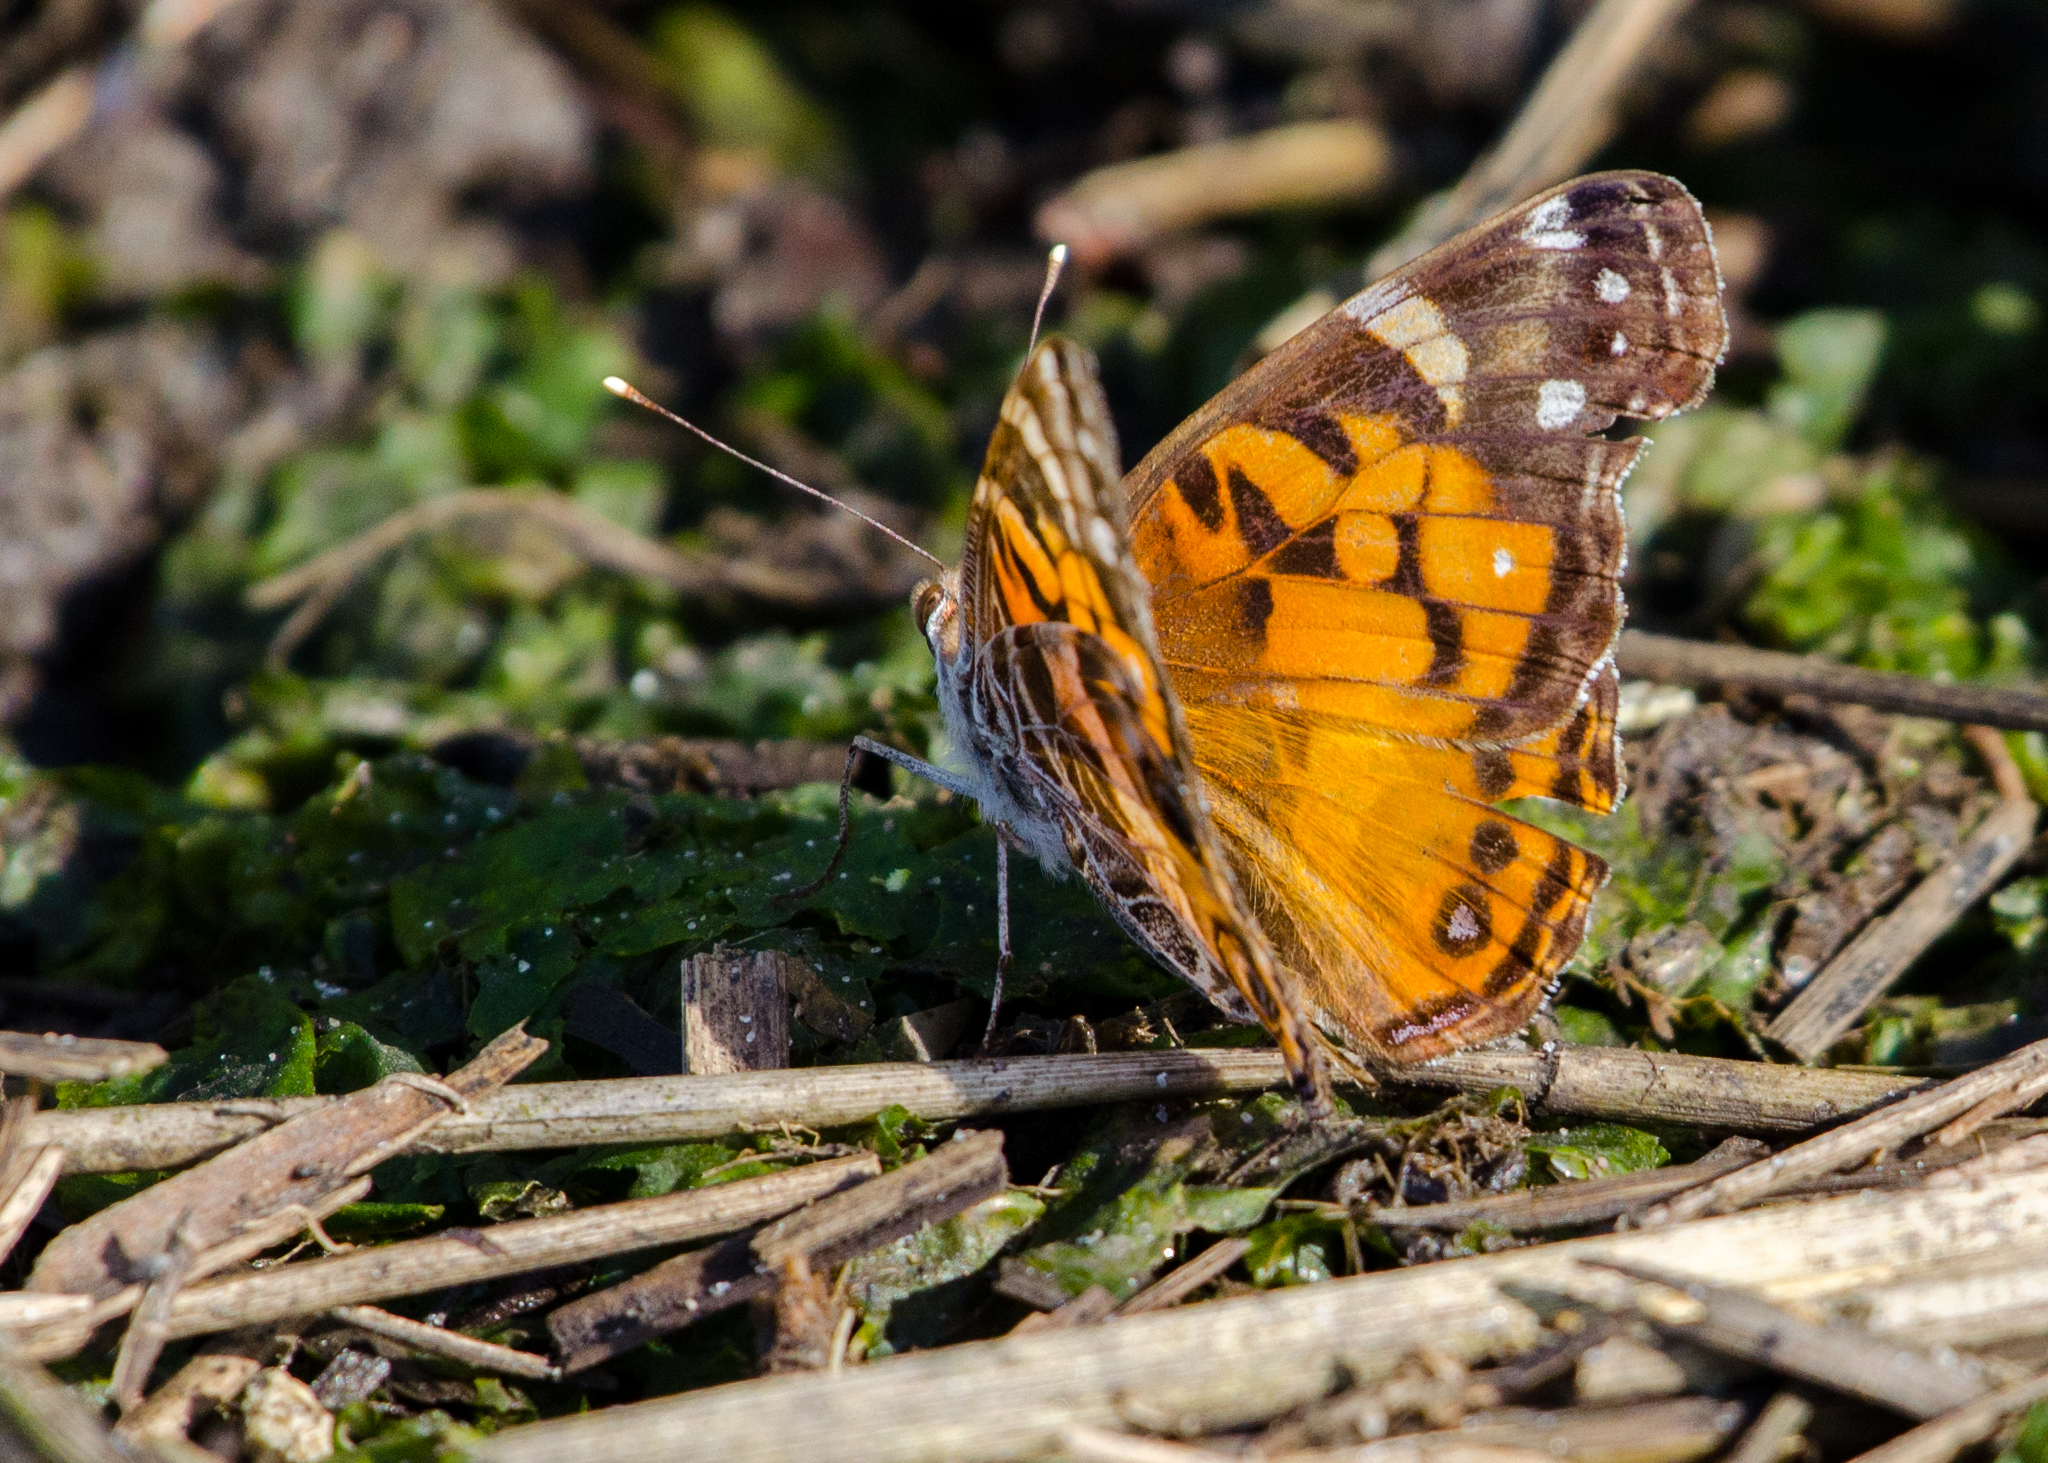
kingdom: Animalia
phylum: Arthropoda
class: Insecta
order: Lepidoptera
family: Nymphalidae
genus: Vanessa
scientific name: Vanessa virginiensis
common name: American lady
